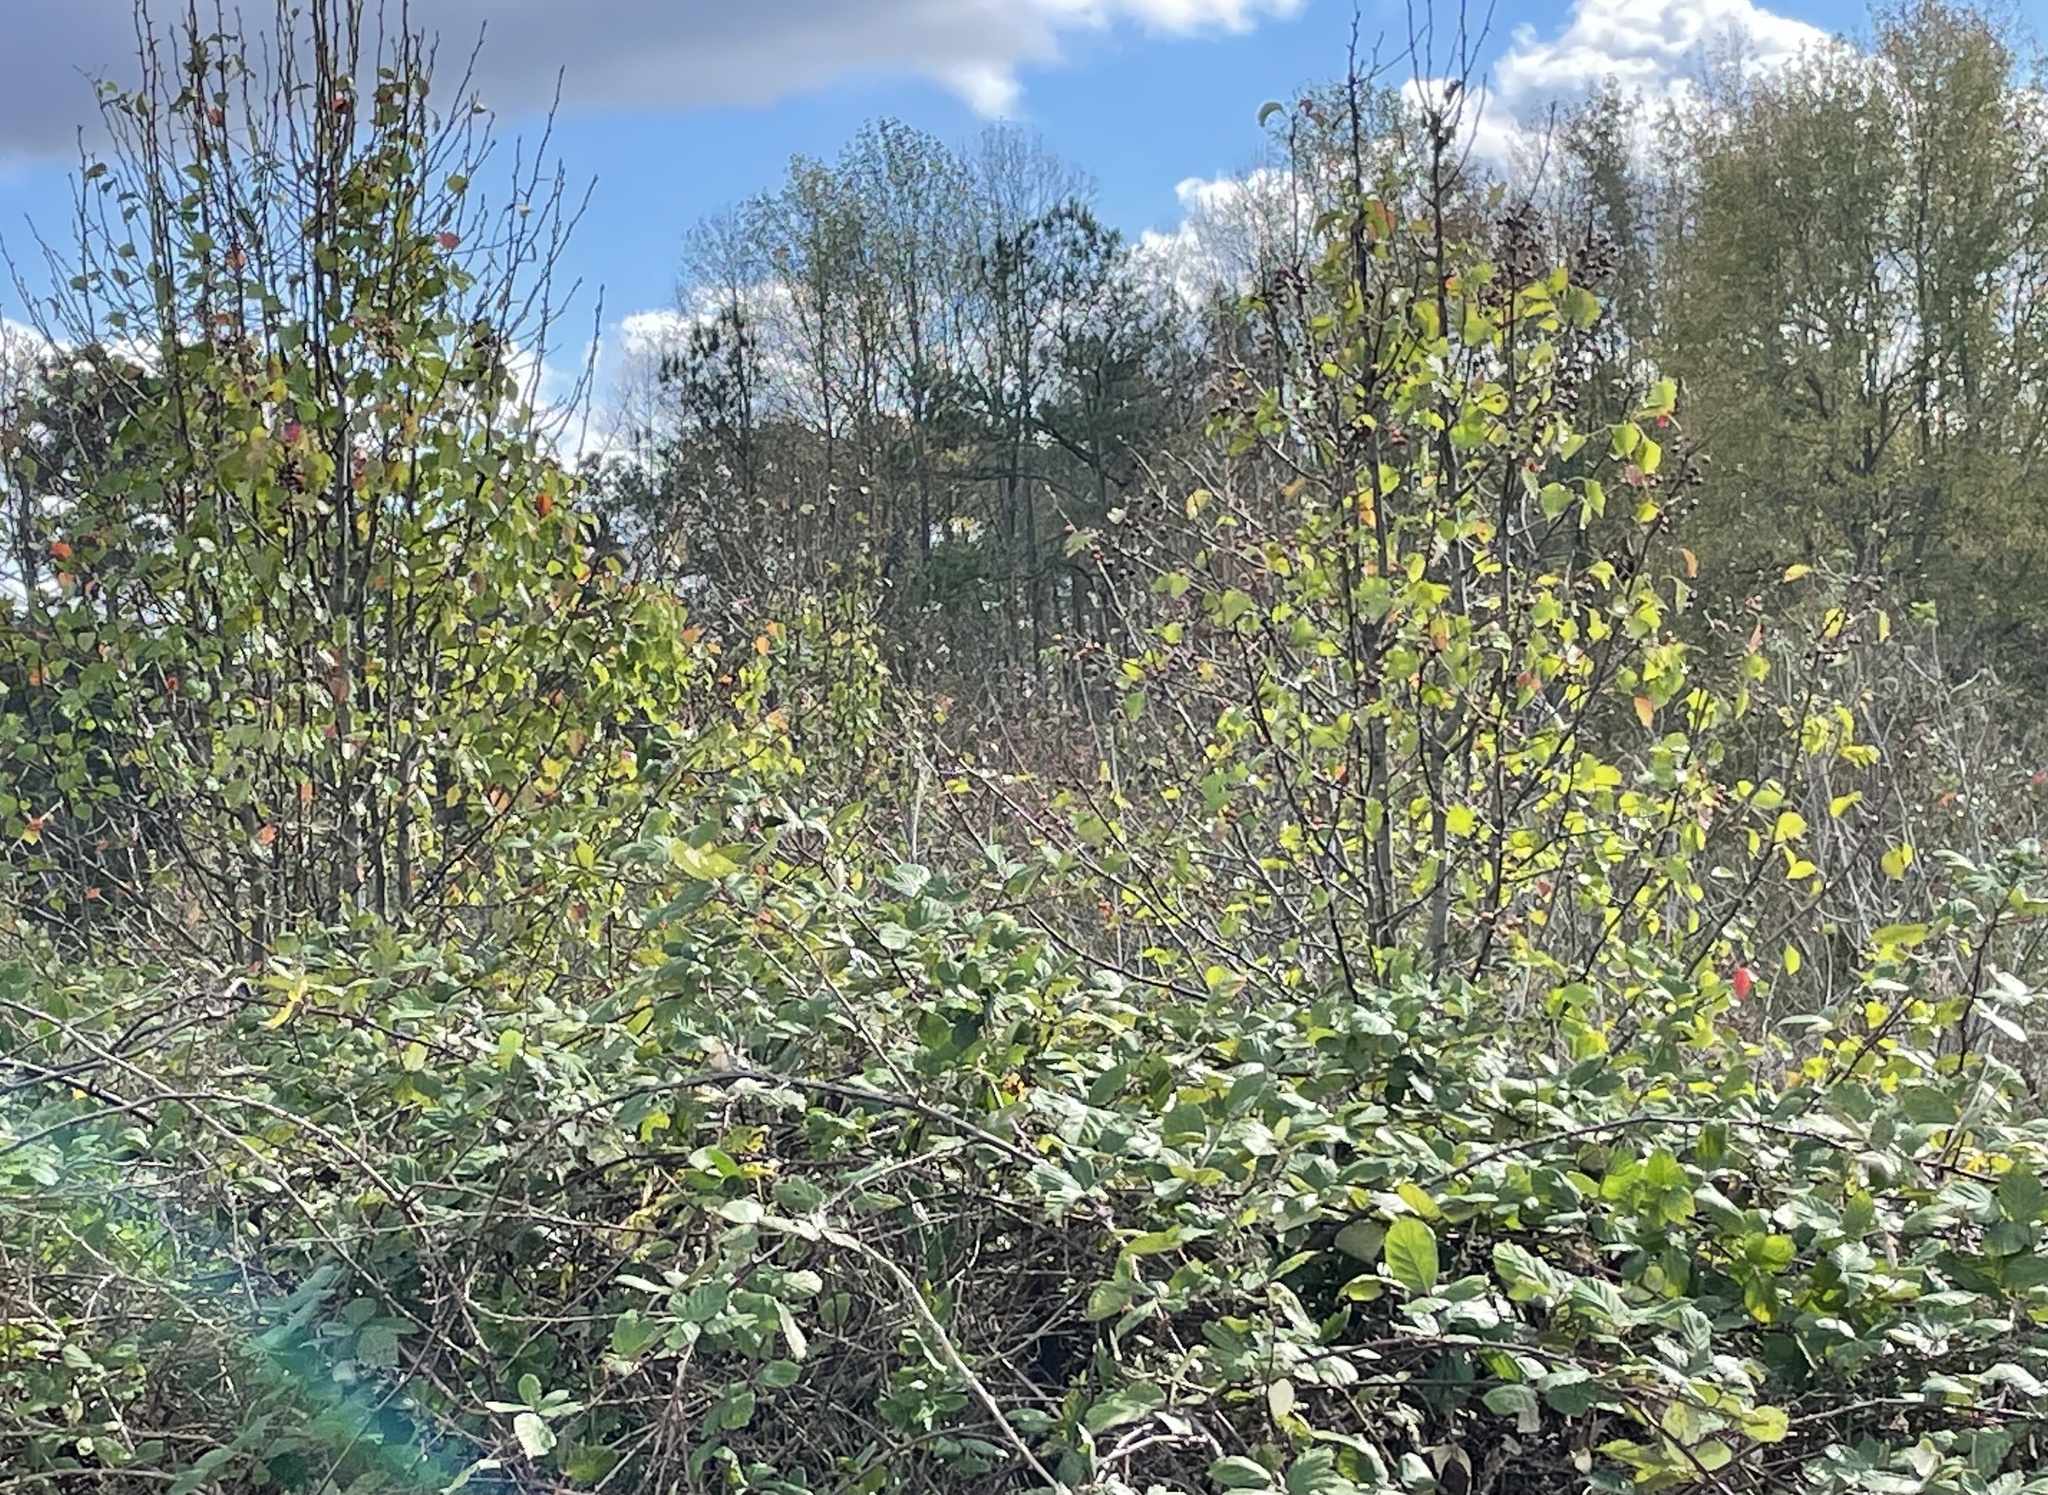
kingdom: Plantae
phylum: Tracheophyta
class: Magnoliopsida
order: Rosales
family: Rosaceae
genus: Pyrus
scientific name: Pyrus calleryana
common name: Callery pear
